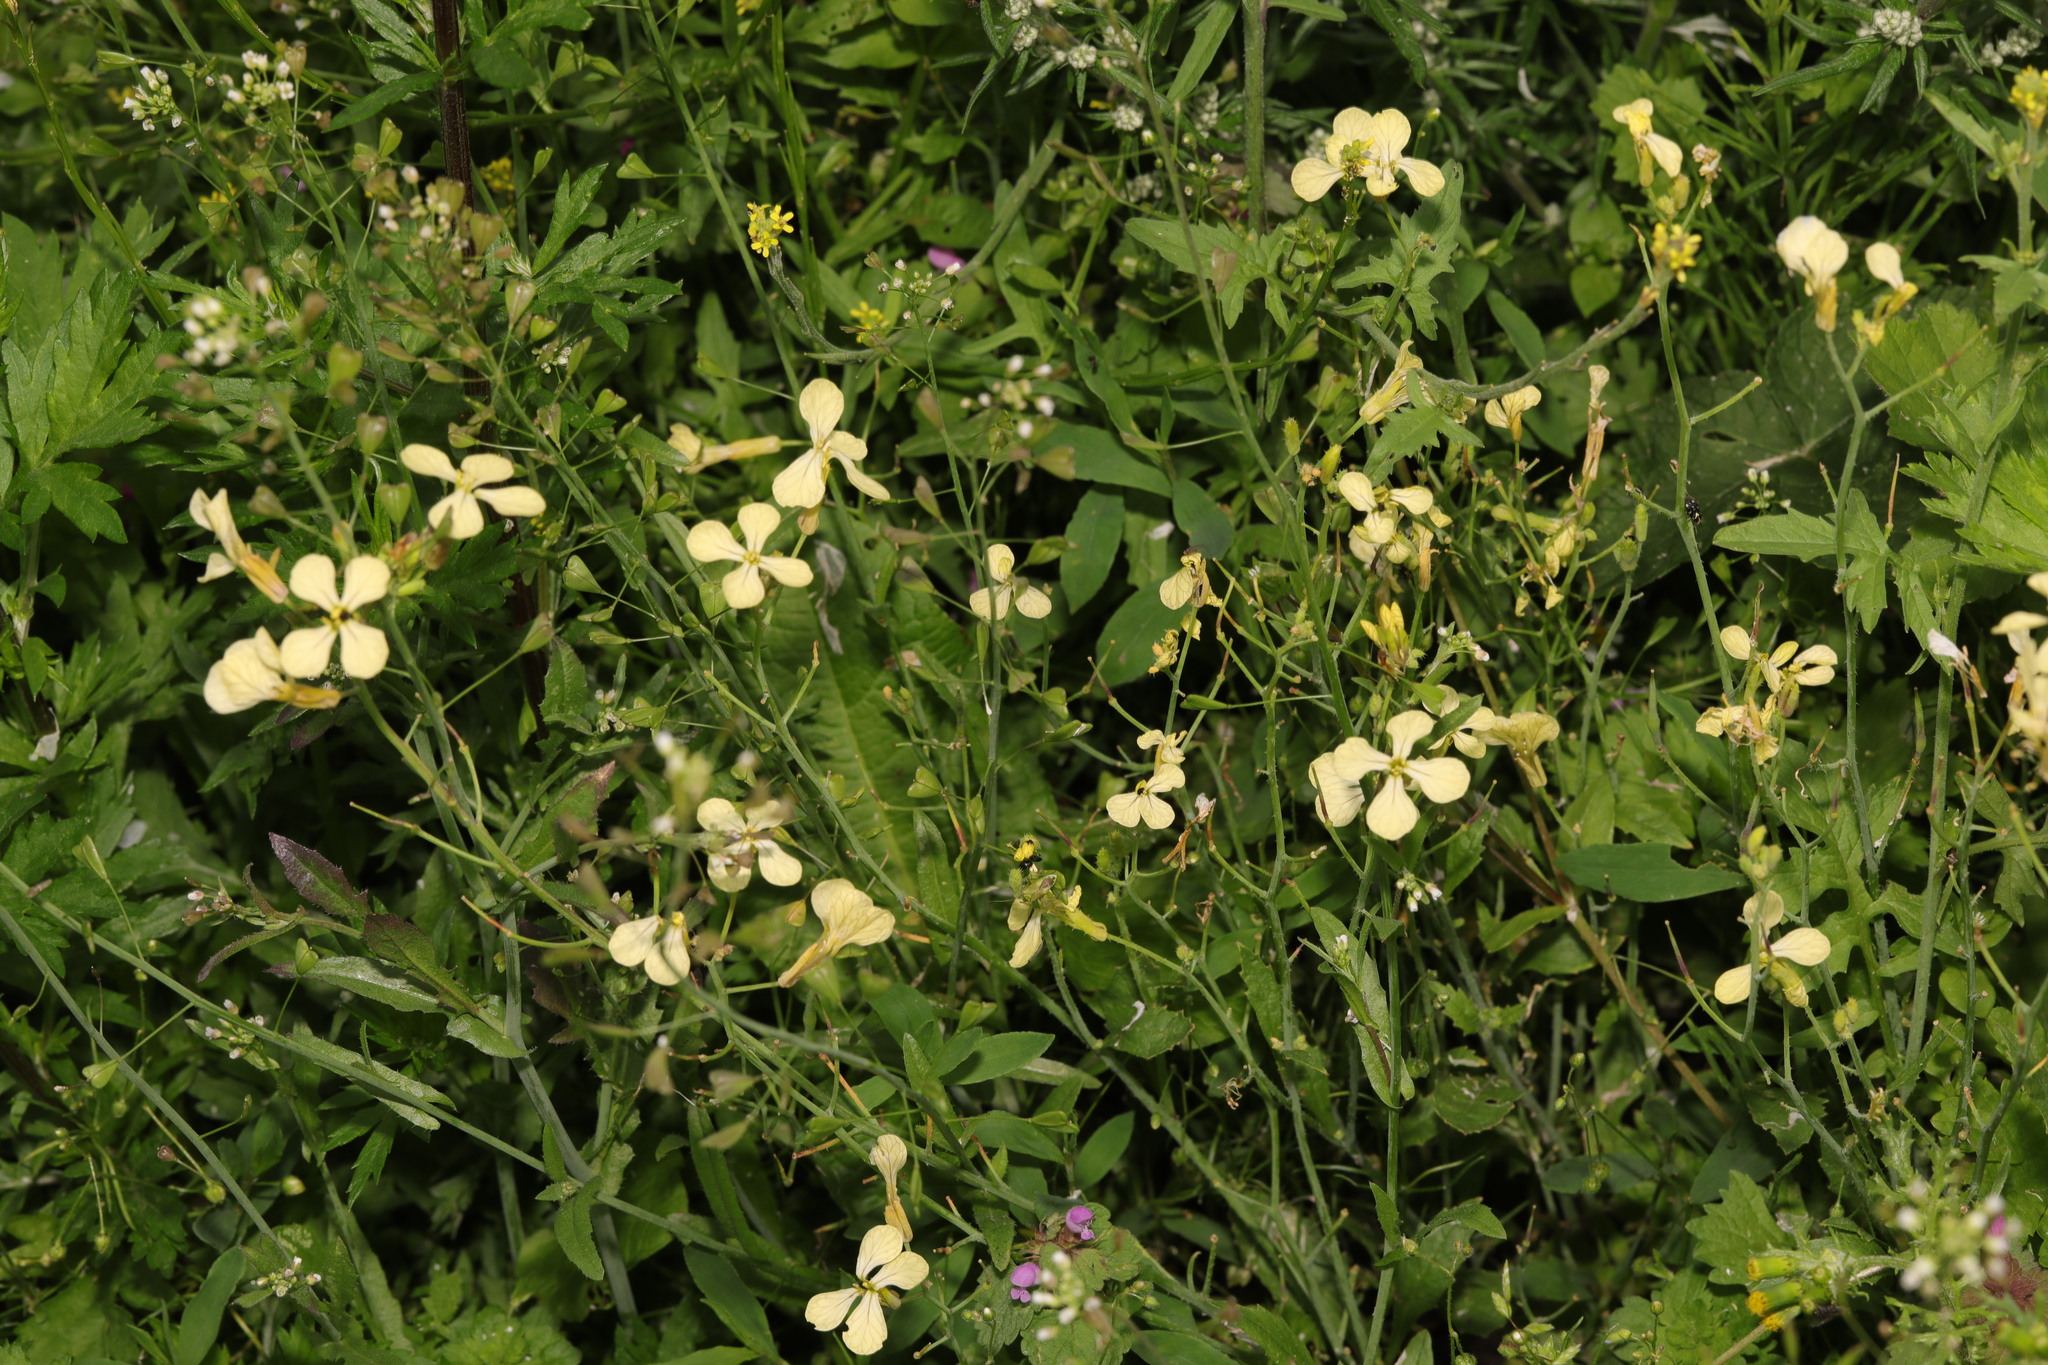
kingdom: Plantae
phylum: Tracheophyta
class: Magnoliopsida
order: Brassicales
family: Brassicaceae
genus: Raphanus
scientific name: Raphanus raphanistrum
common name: Wild radish
